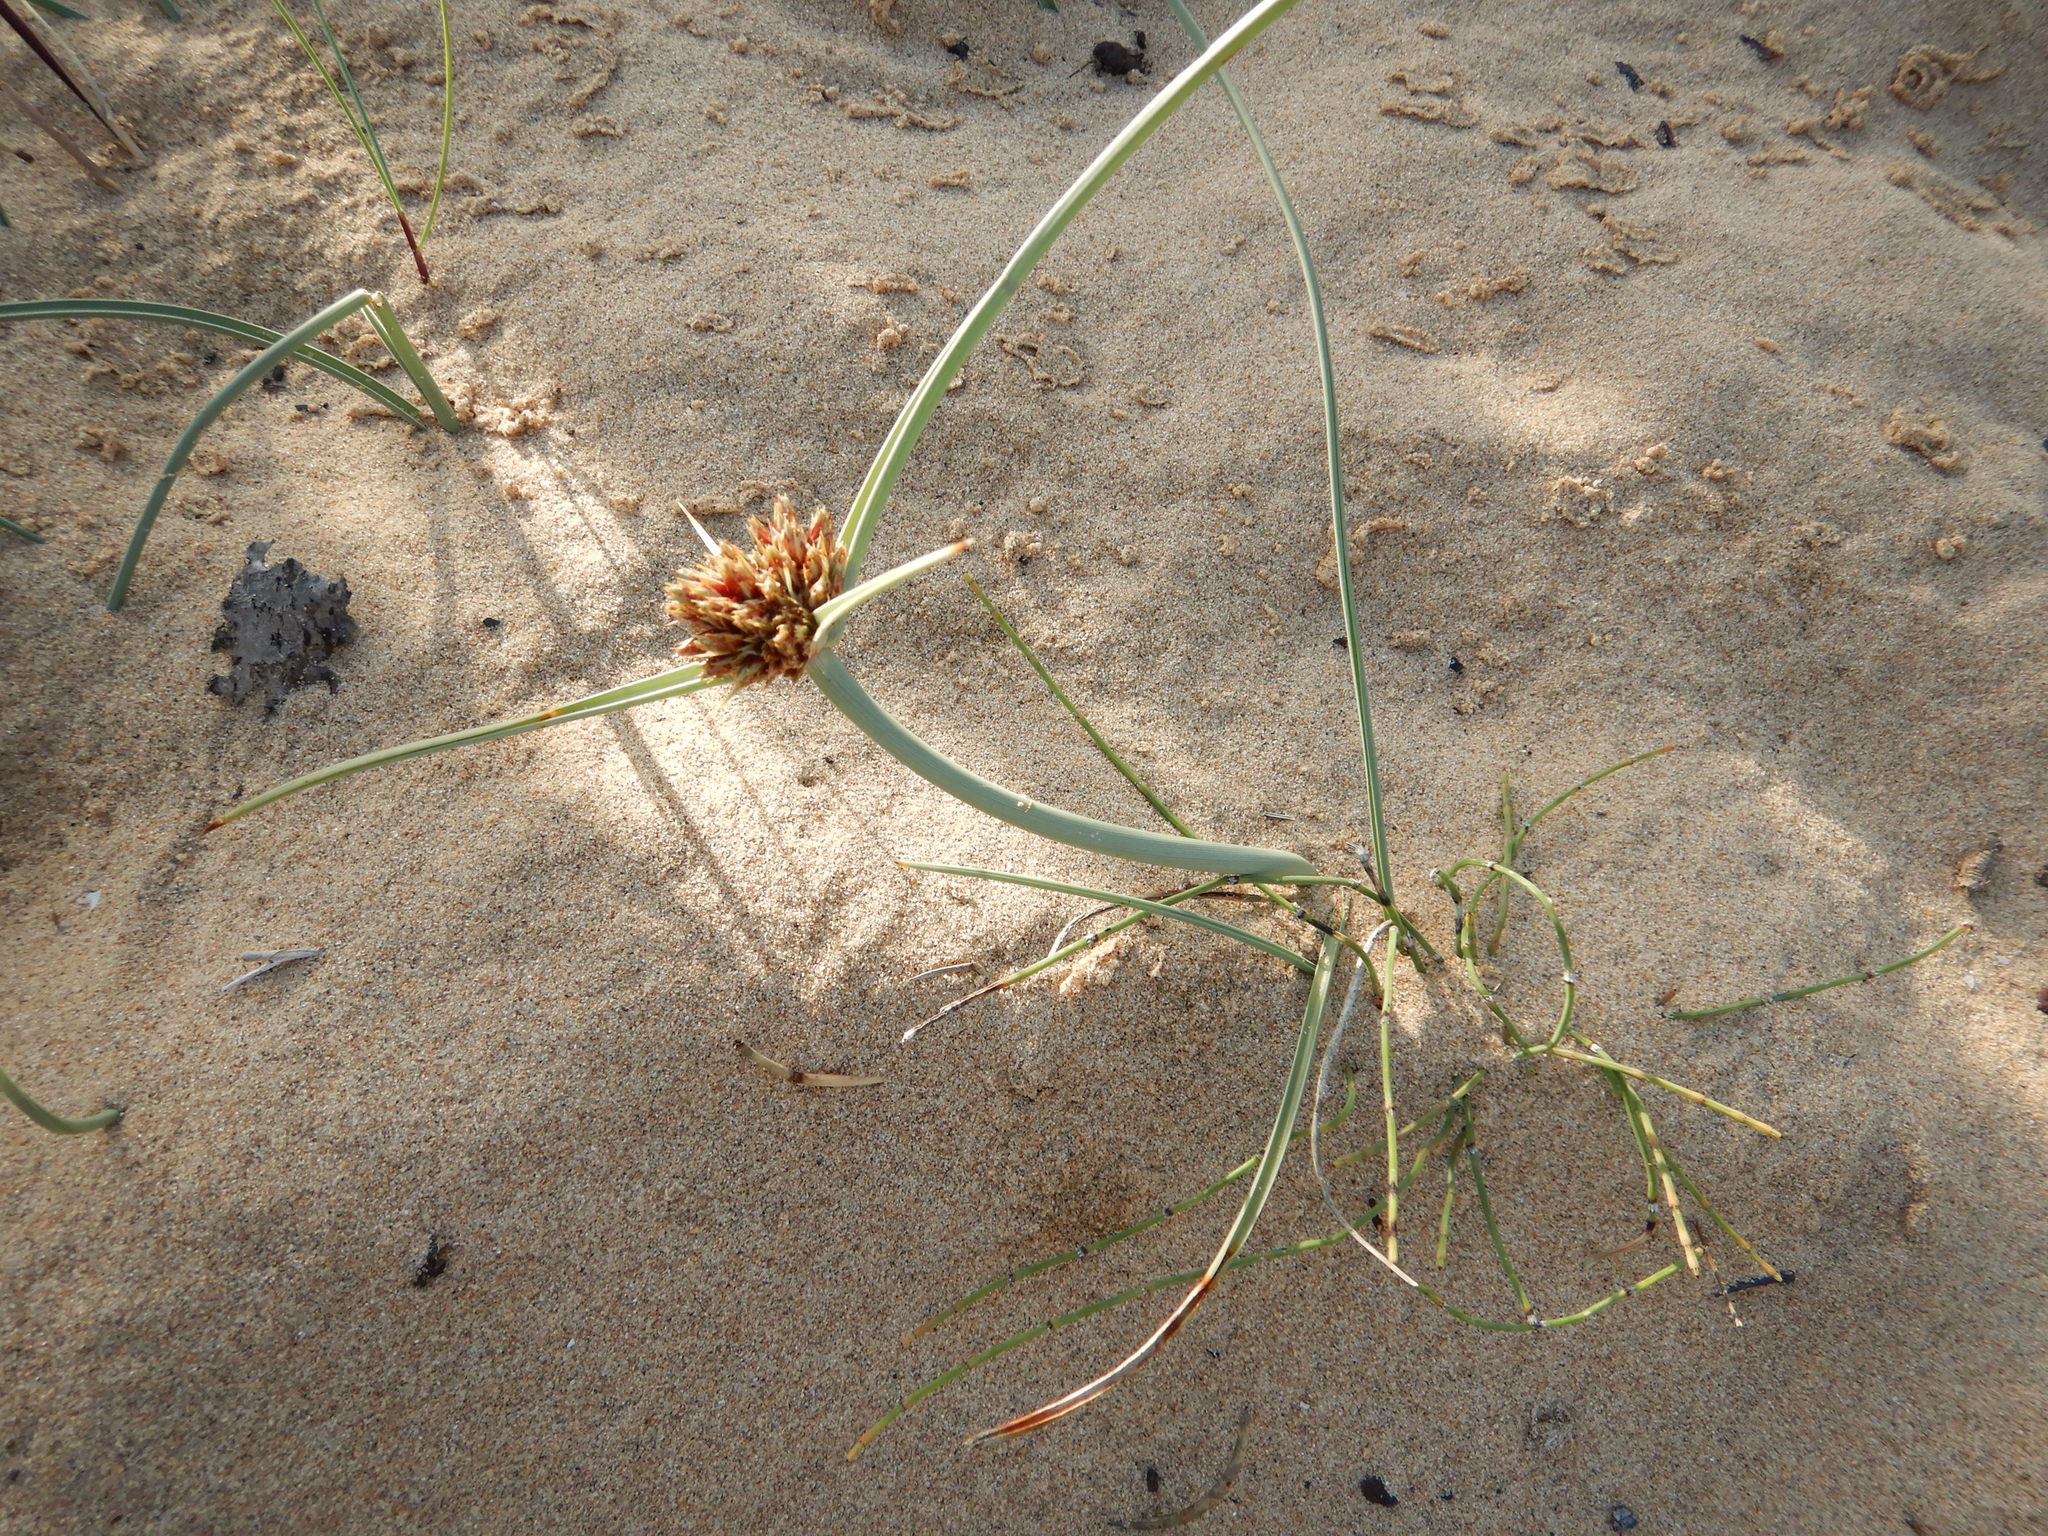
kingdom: Plantae
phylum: Tracheophyta
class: Liliopsida
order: Poales
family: Cyperaceae
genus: Cyperus
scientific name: Cyperus capitatus
